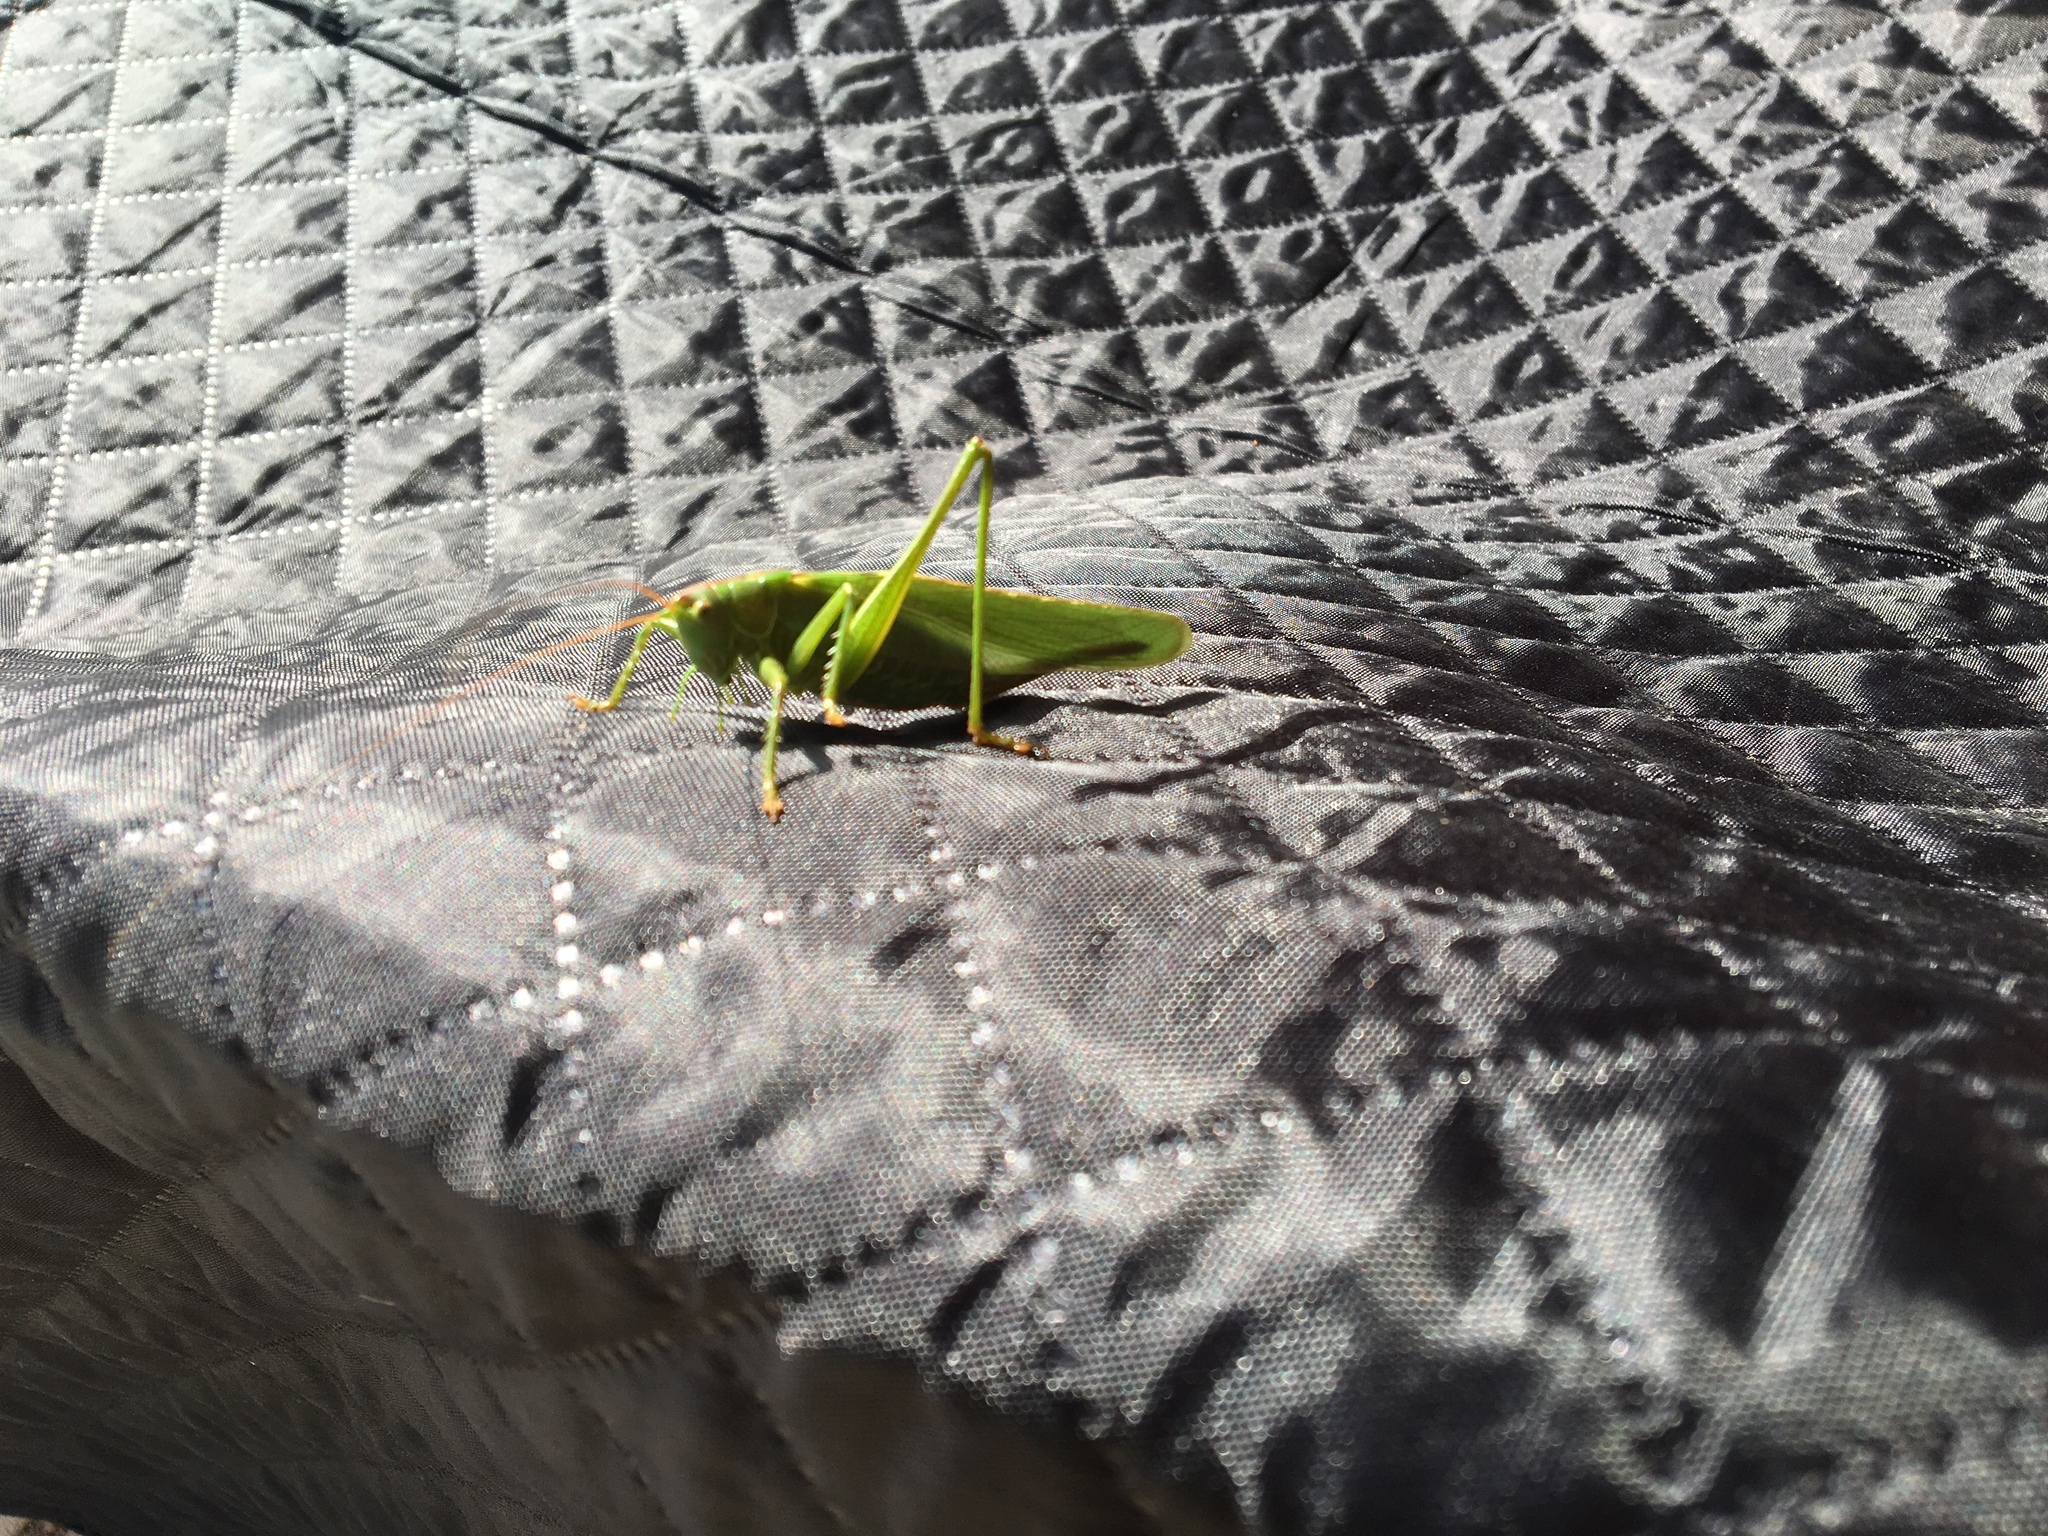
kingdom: Animalia
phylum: Arthropoda
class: Insecta
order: Orthoptera
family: Tettigoniidae
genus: Tettigonia
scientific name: Tettigonia viridissima
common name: Great green bush-cricket
